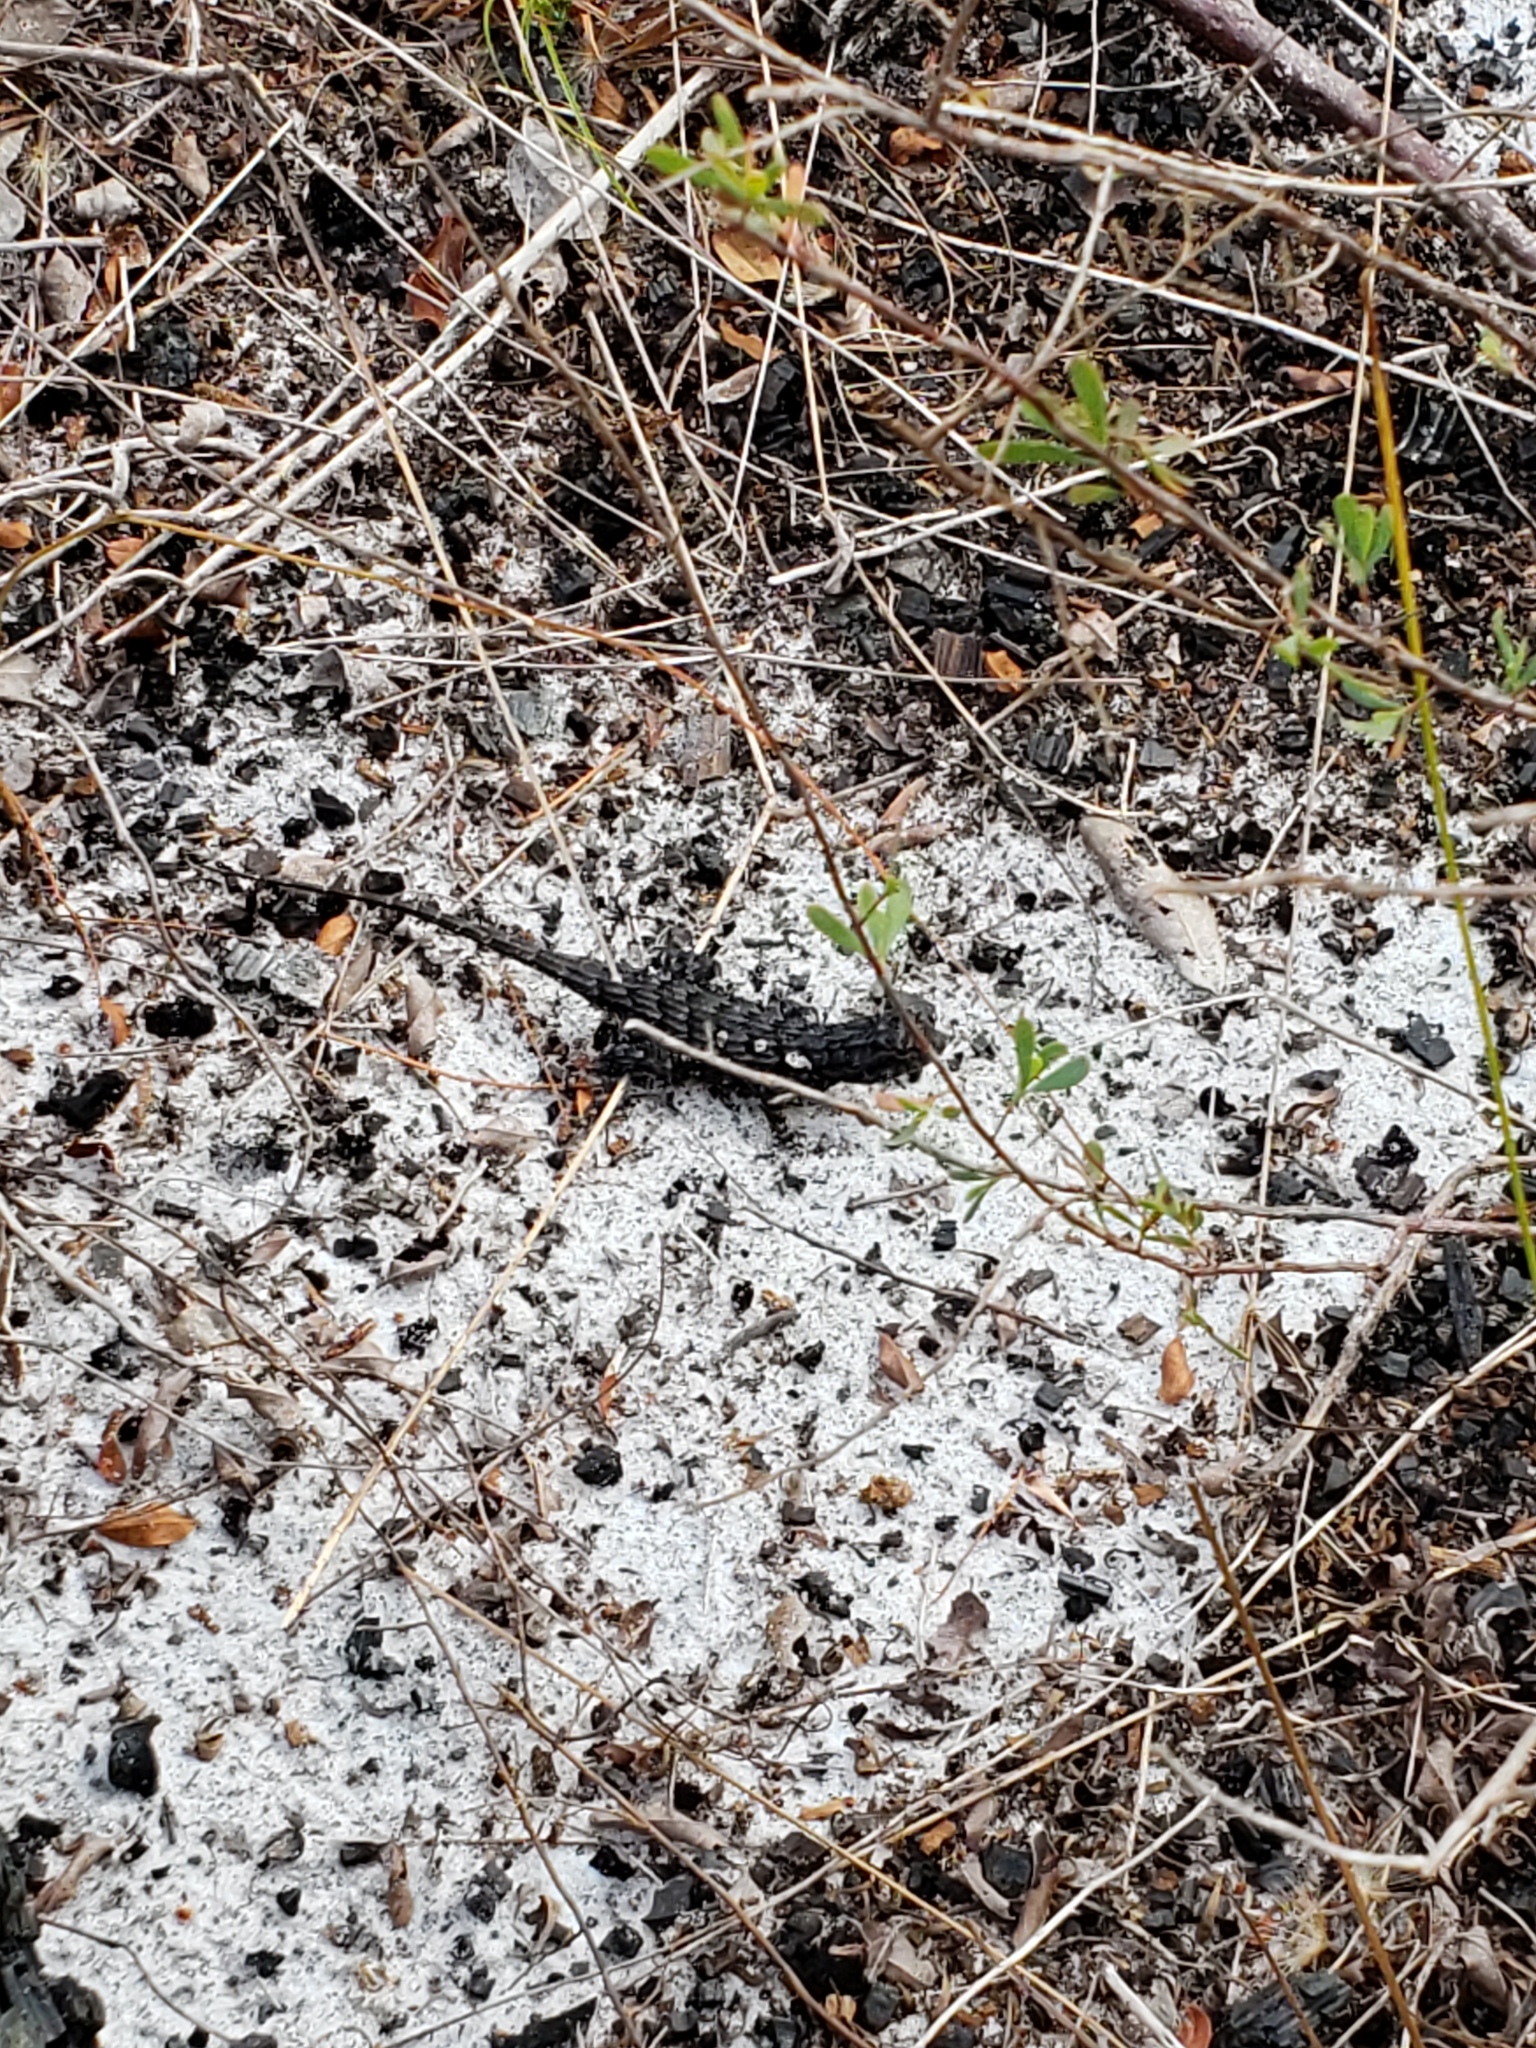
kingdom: Animalia
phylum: Chordata
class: Squamata
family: Phrynosomatidae
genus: Sceloporus
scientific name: Sceloporus undulatus
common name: Eastern fence lizard
